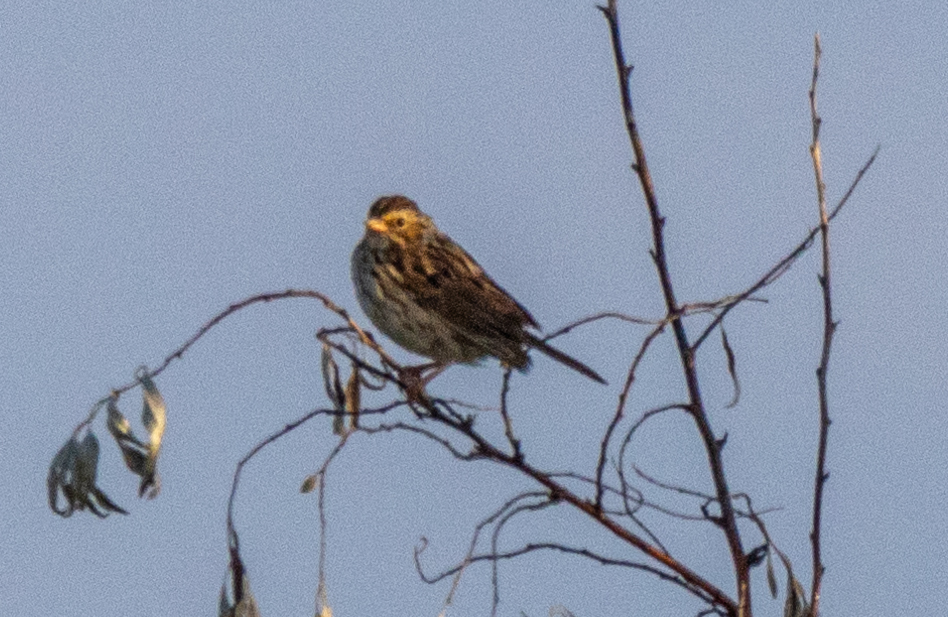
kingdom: Animalia
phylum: Chordata
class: Aves
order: Passeriformes
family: Passerellidae
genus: Passerculus
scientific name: Passerculus sandwichensis
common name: Savannah sparrow
